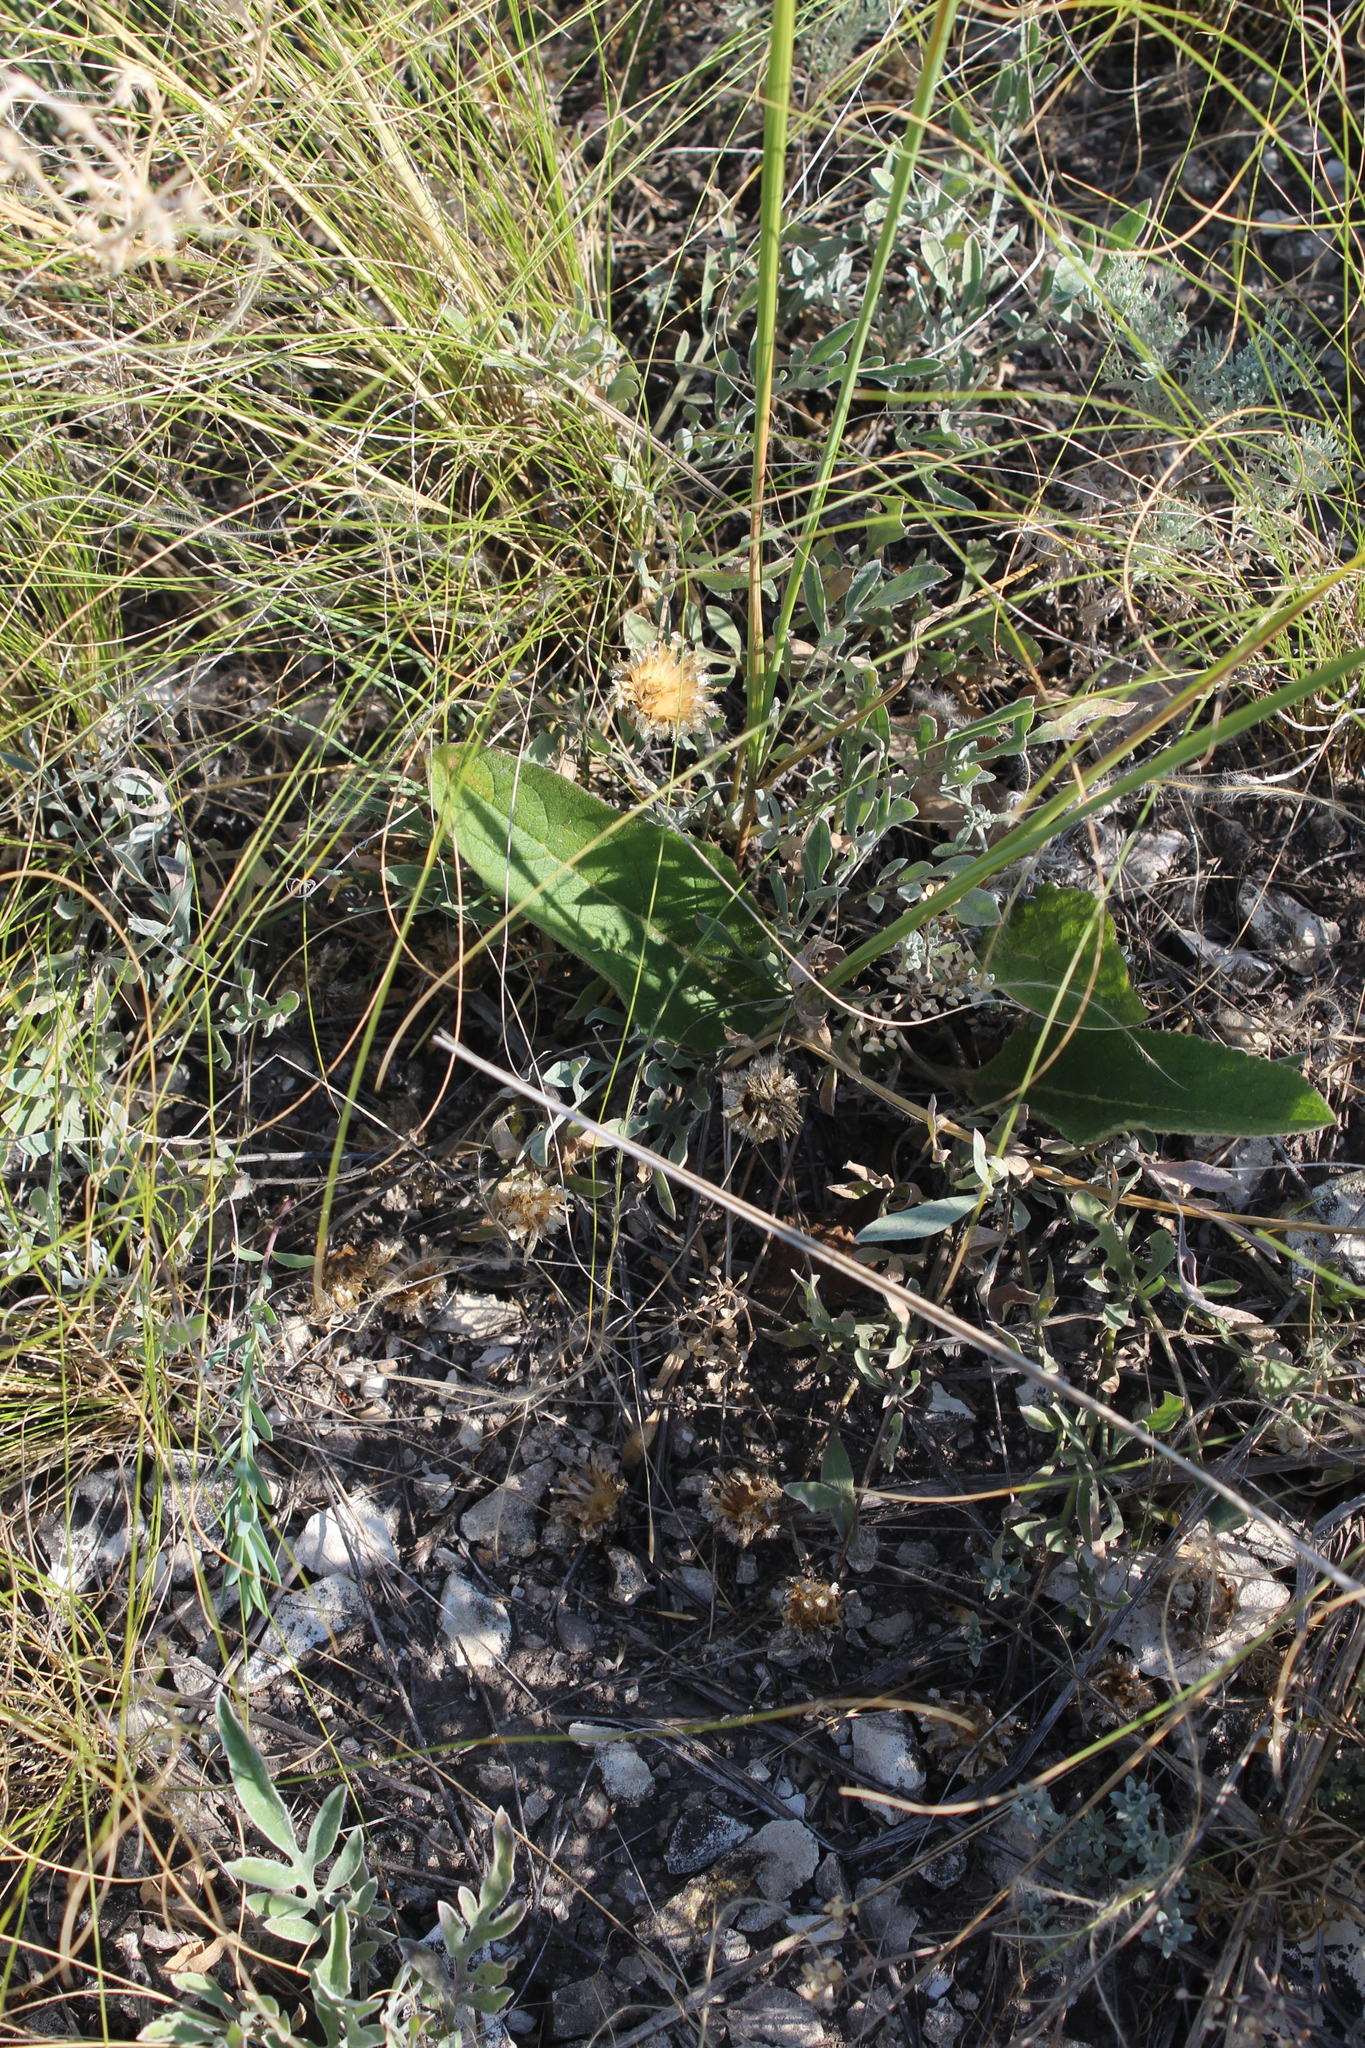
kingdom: Plantae
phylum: Tracheophyta
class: Magnoliopsida
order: Asterales
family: Asteraceae
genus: Psephellus
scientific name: Psephellus marschallianus
